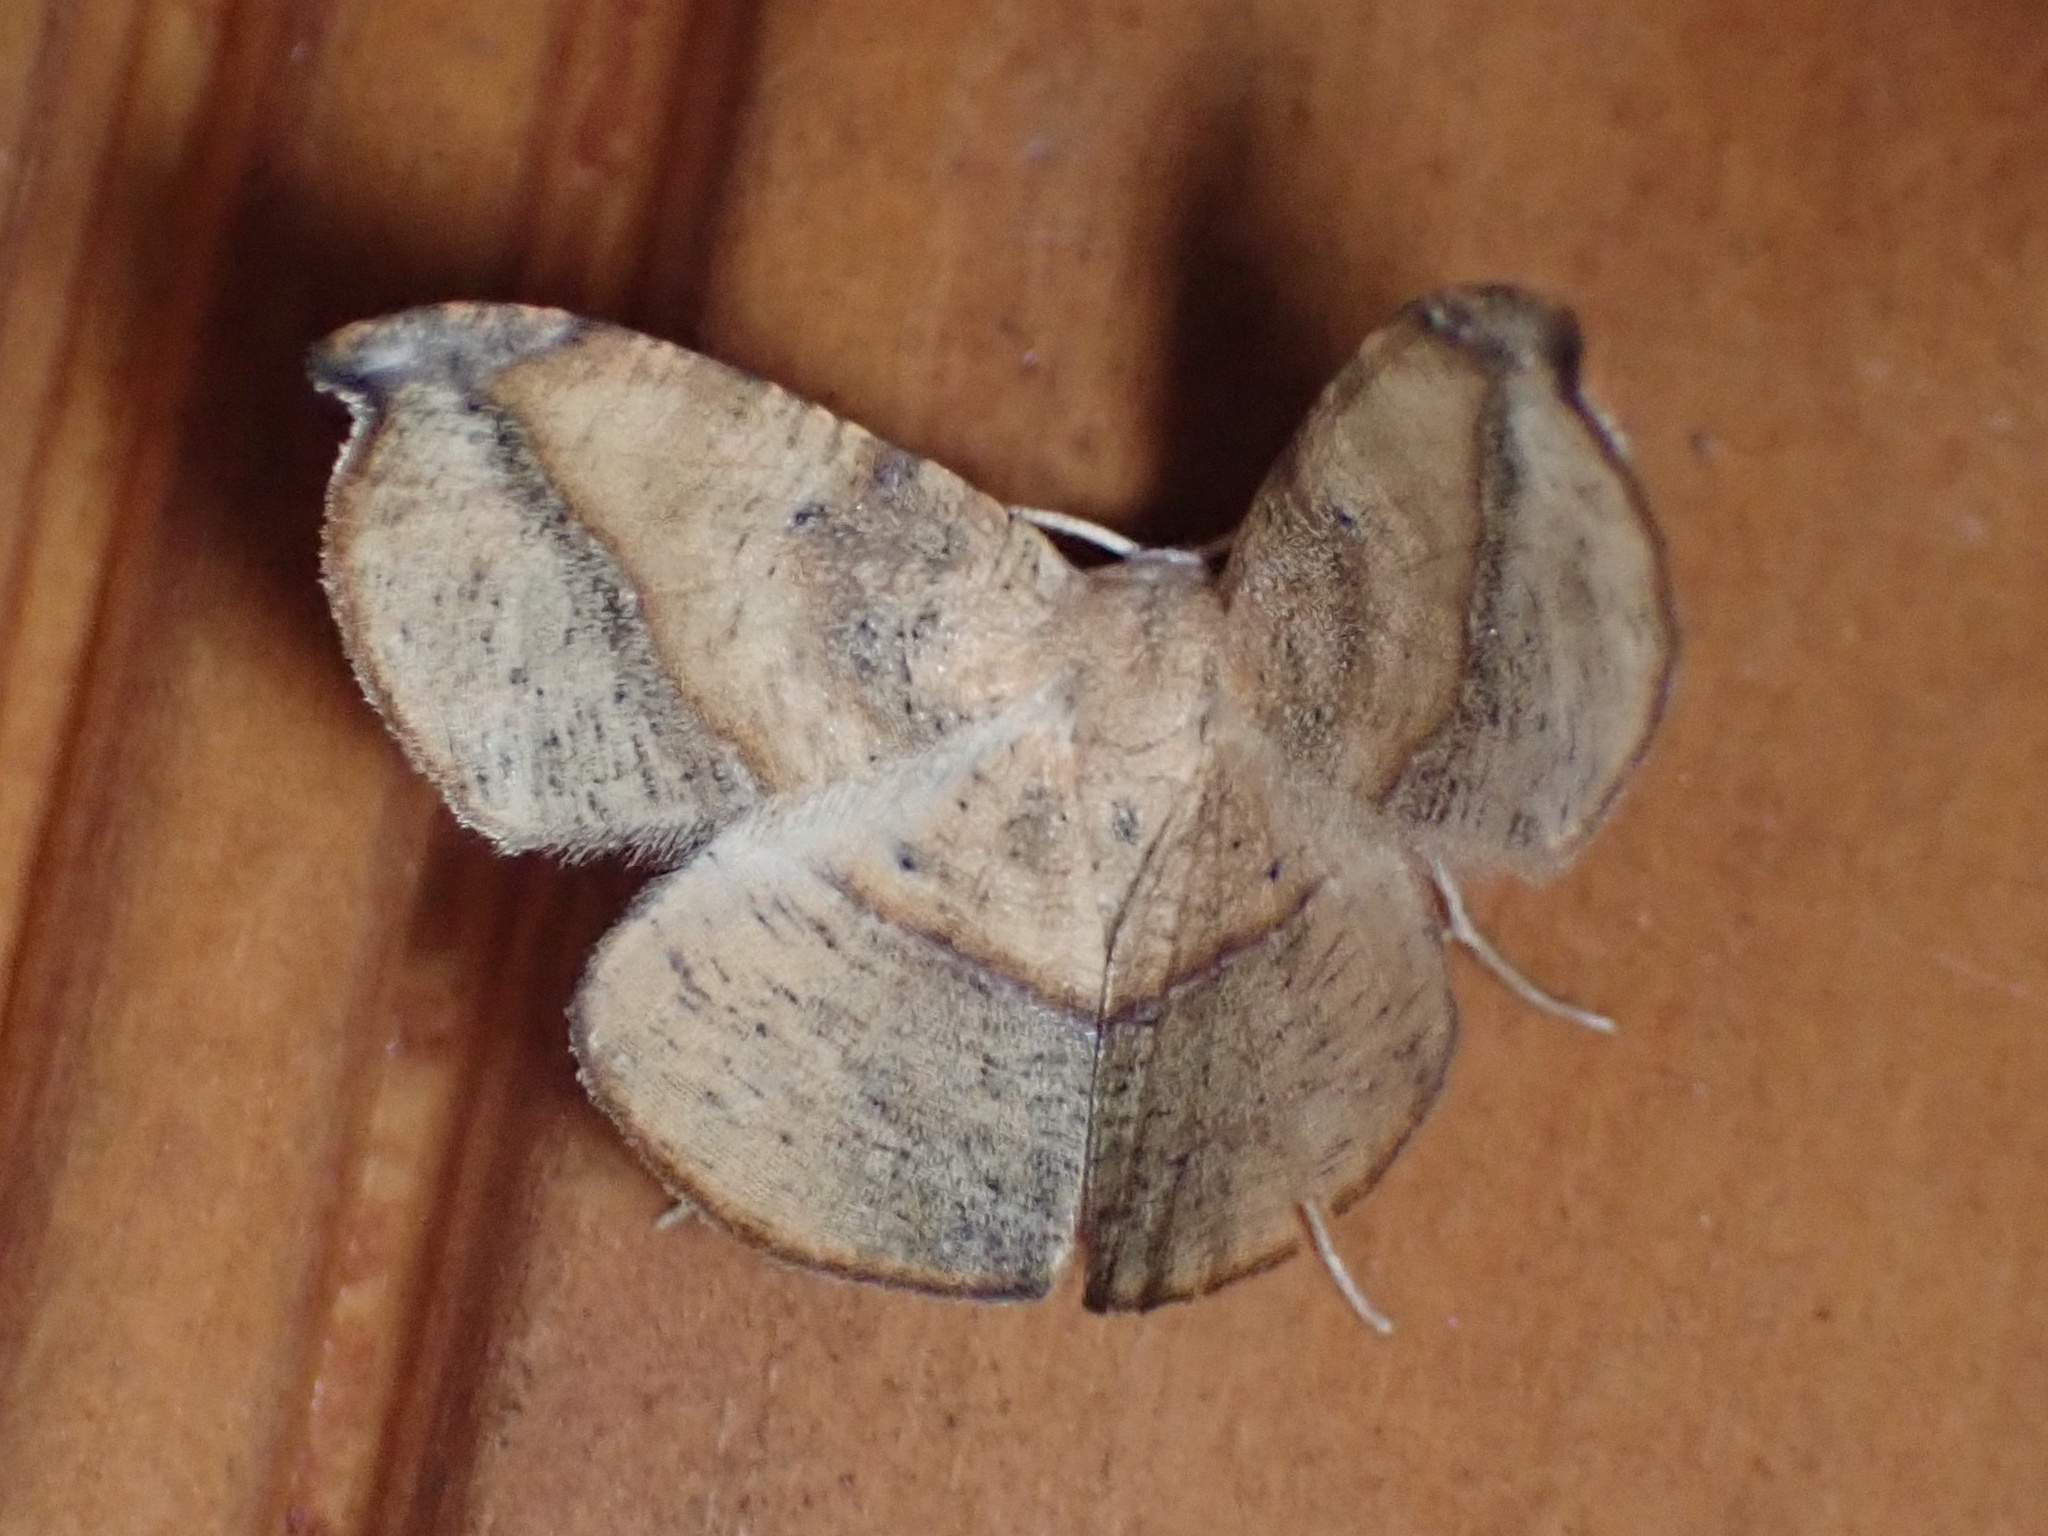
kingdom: Animalia
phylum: Arthropoda
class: Insecta
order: Lepidoptera
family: Geometridae
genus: Patalene
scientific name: Patalene olyzonaria
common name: Juniper geometer moth
